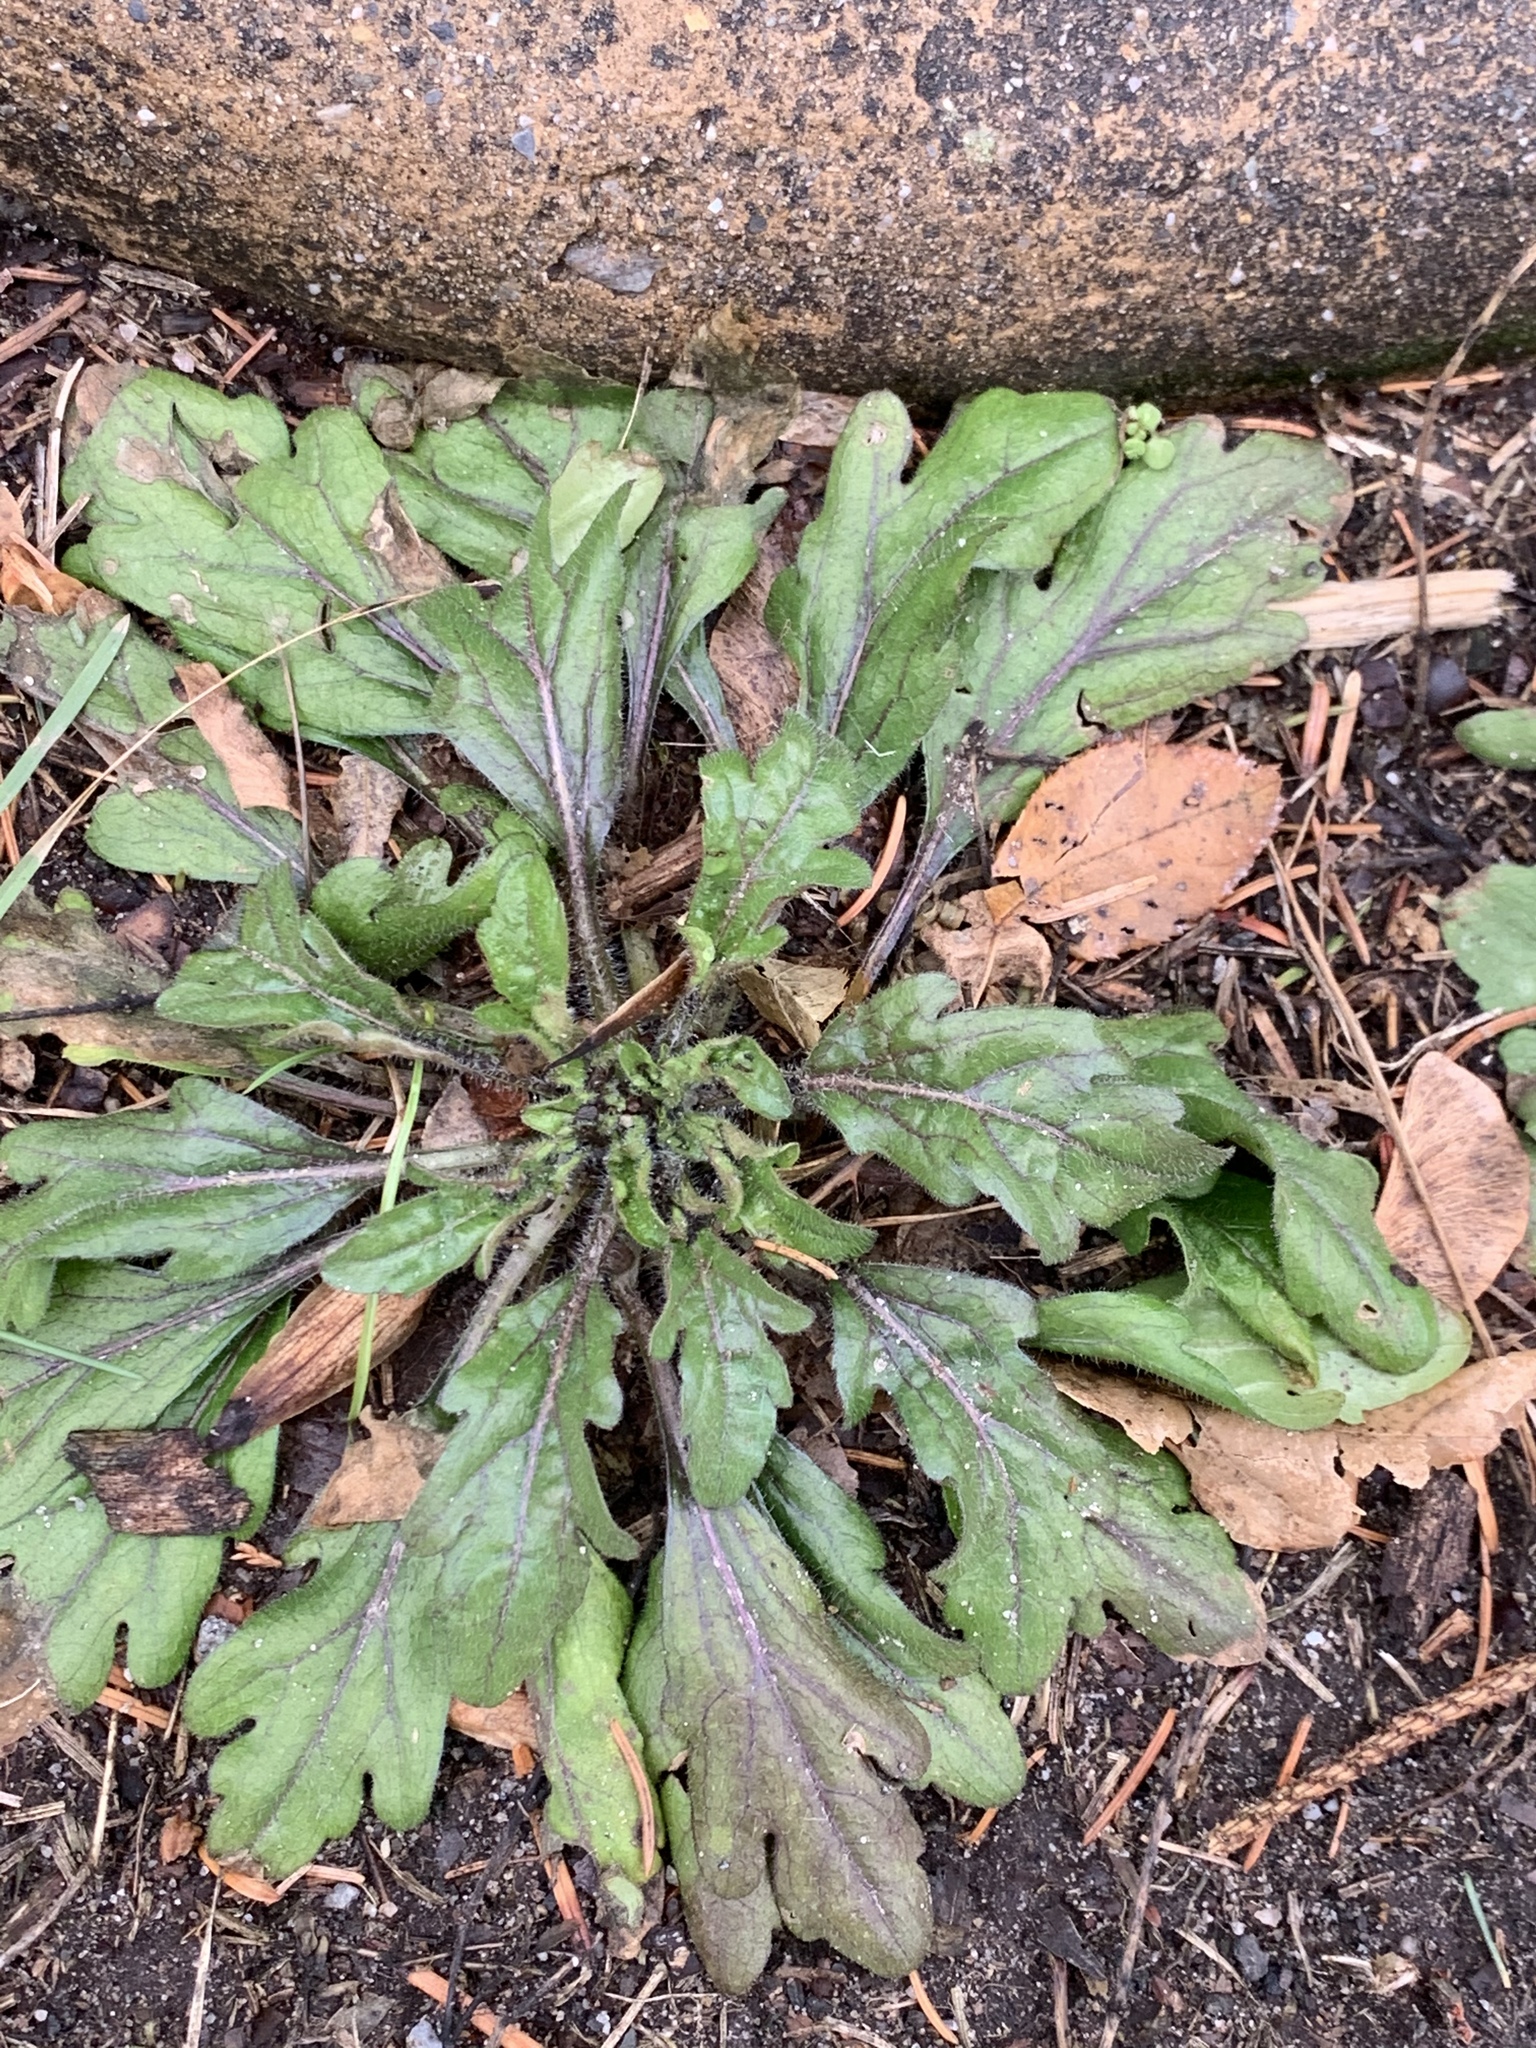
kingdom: Plantae
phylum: Tracheophyta
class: Magnoliopsida
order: Asterales
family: Asteraceae
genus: Erigeron
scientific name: Erigeron canadensis
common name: Canadian fleabane
